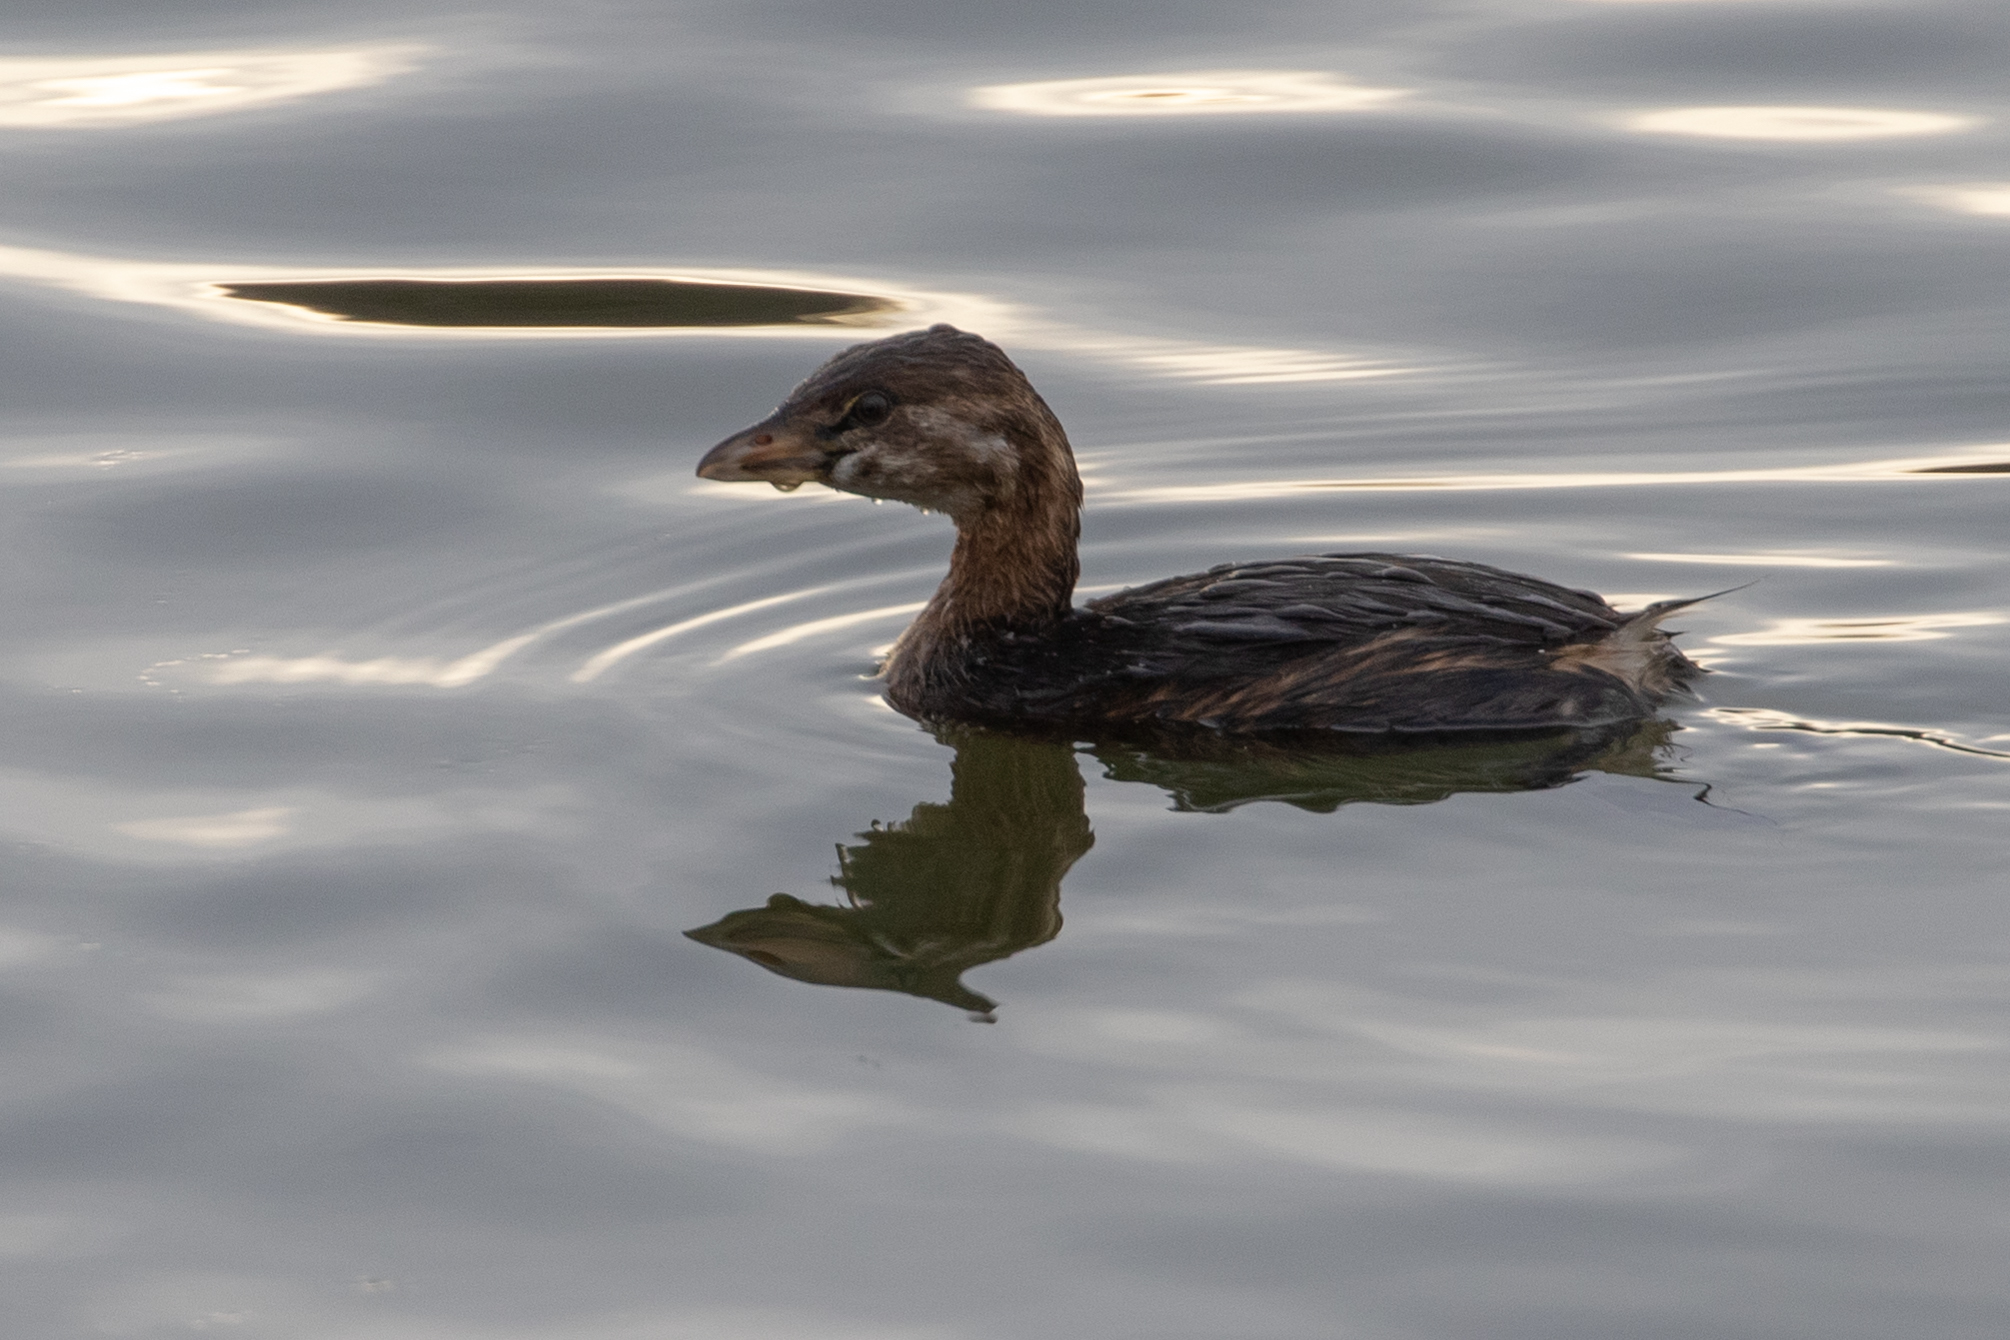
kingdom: Animalia
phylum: Chordata
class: Aves
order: Podicipediformes
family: Podicipedidae
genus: Podilymbus
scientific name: Podilymbus podiceps
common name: Pied-billed grebe
